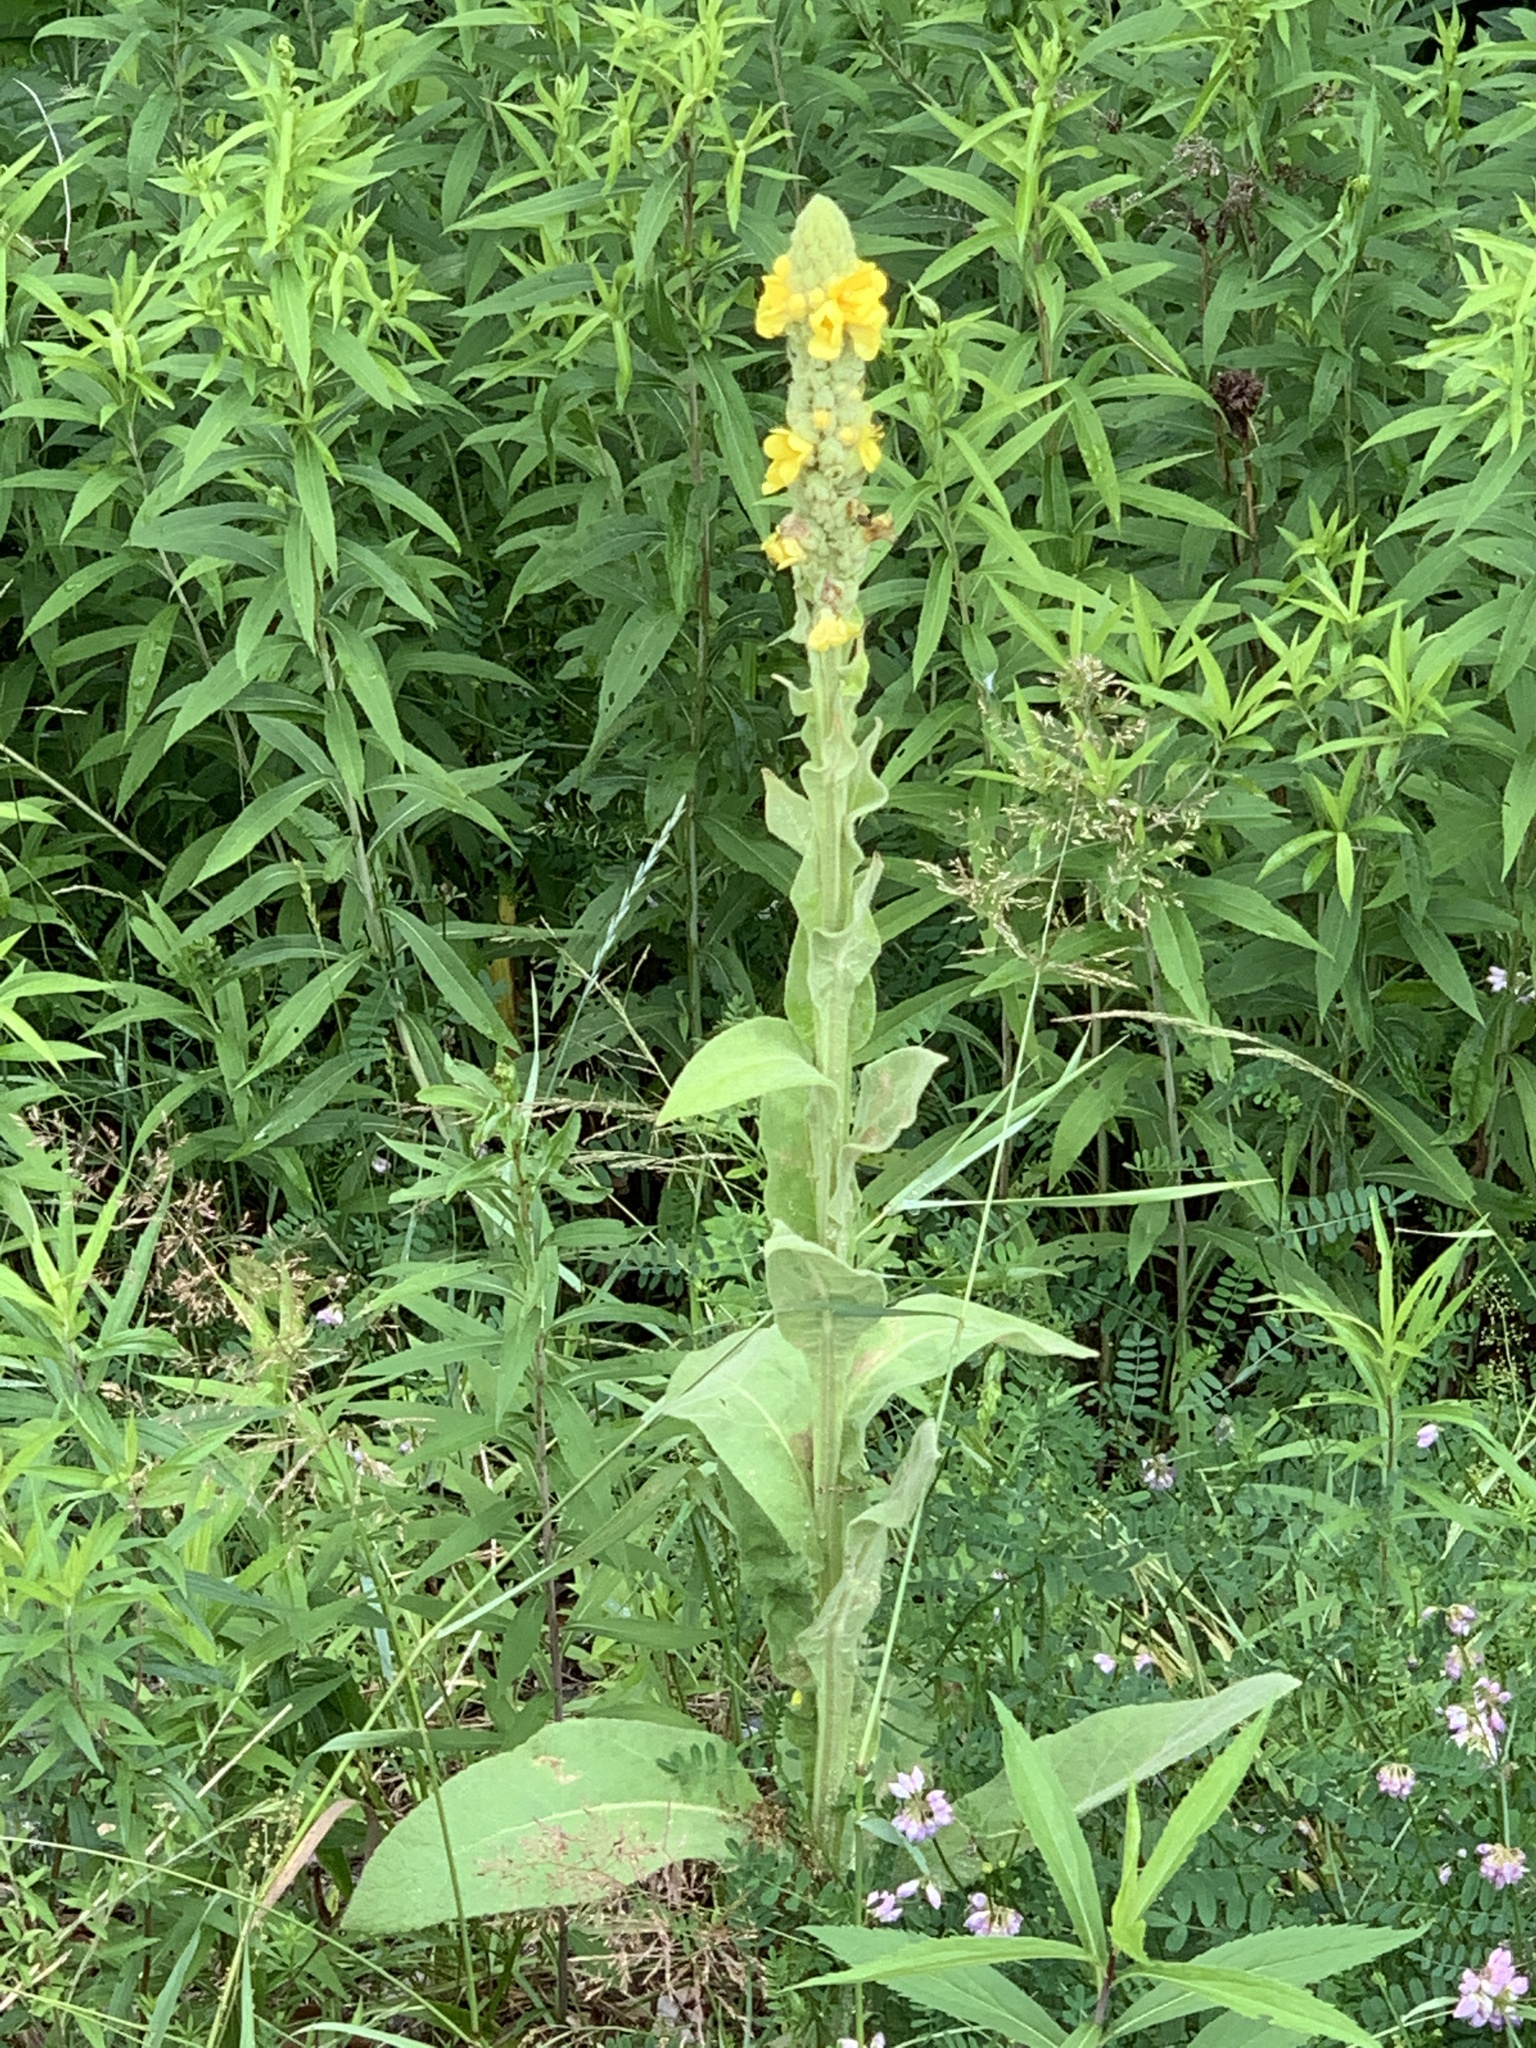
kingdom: Plantae
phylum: Tracheophyta
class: Magnoliopsida
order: Lamiales
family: Scrophulariaceae
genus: Verbascum
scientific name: Verbascum thapsus
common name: Common mullein
